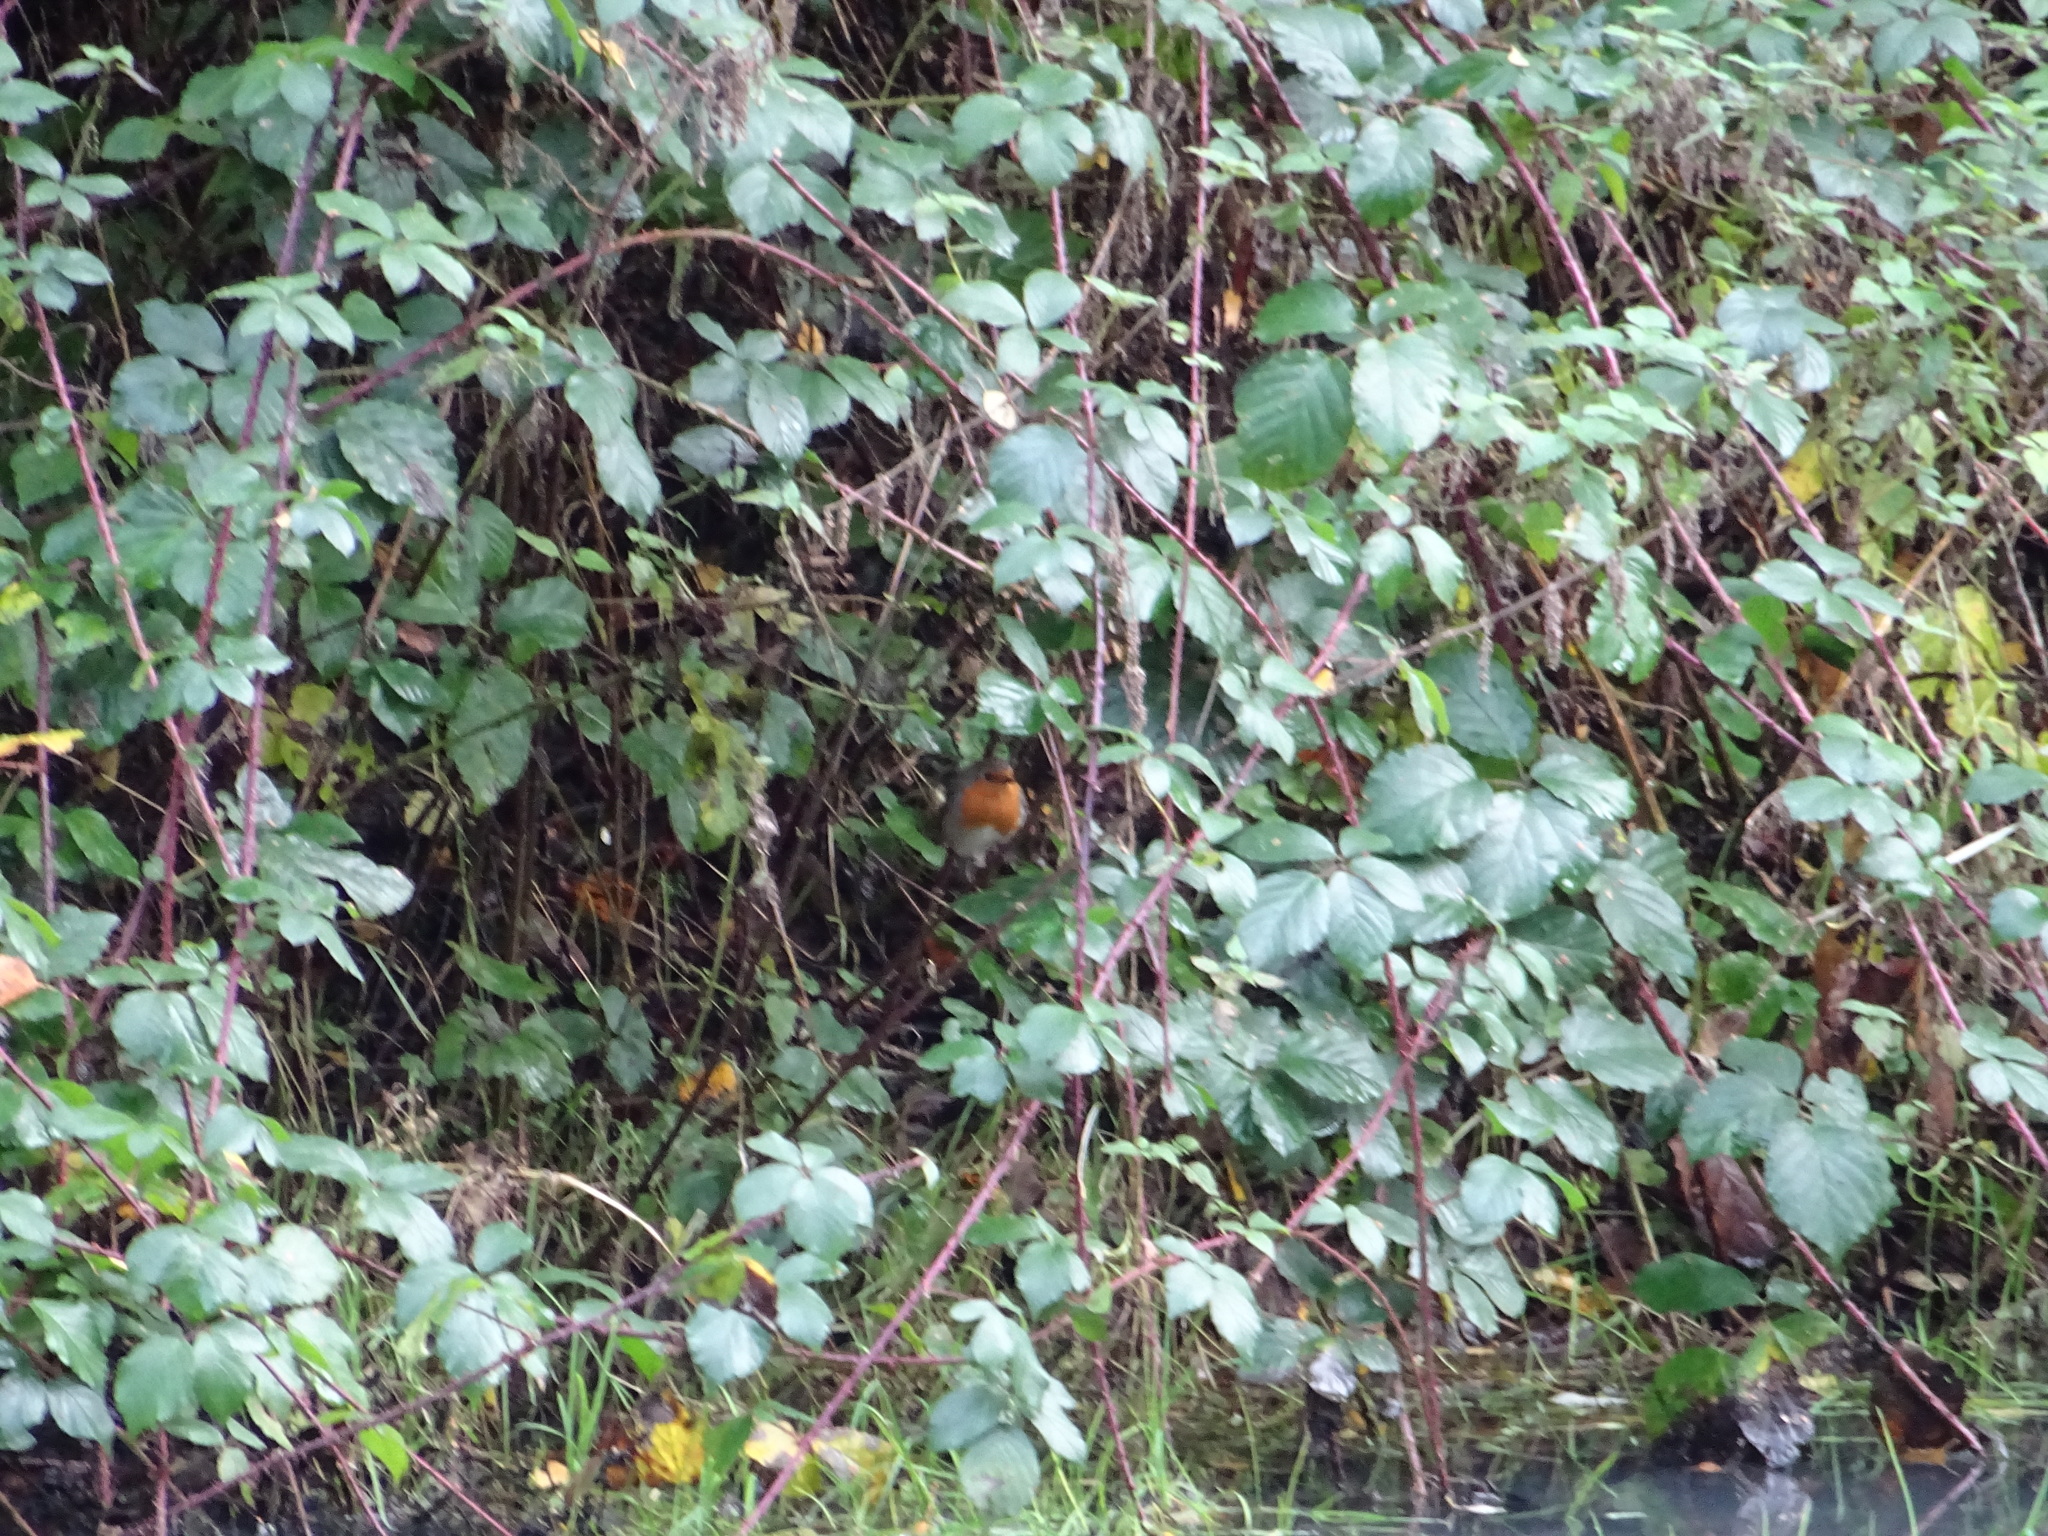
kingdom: Animalia
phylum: Chordata
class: Aves
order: Passeriformes
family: Muscicapidae
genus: Erithacus
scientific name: Erithacus rubecula
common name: European robin
